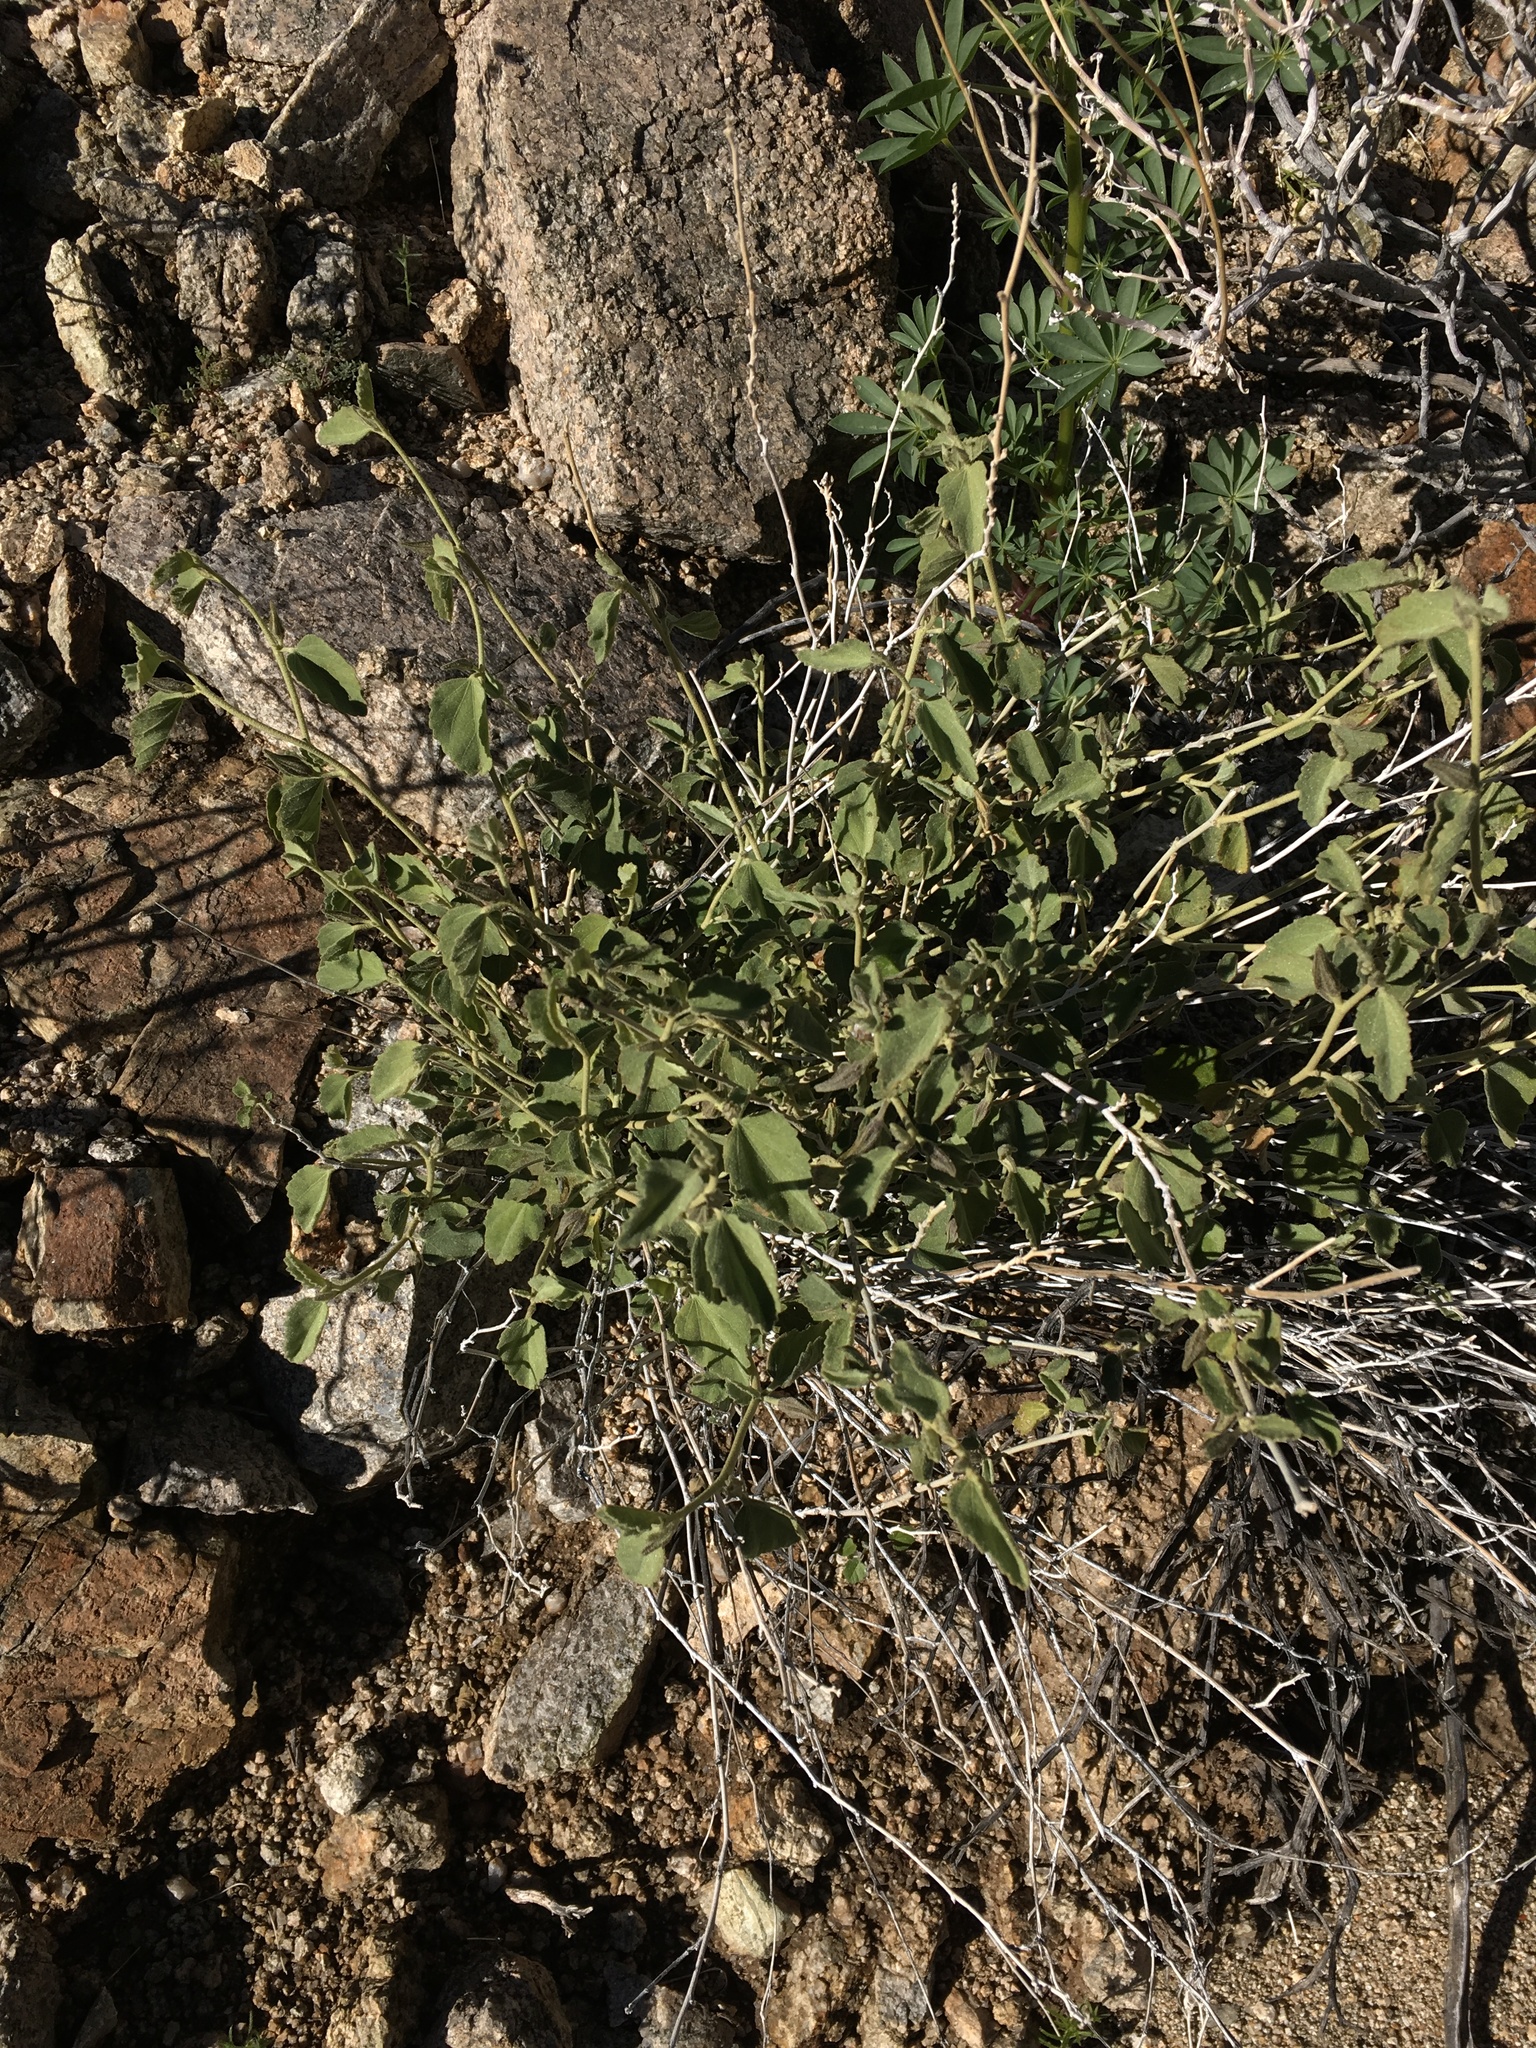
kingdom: Plantae
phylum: Tracheophyta
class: Magnoliopsida
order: Malvales
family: Malvaceae
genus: Hibiscus
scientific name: Hibiscus denudatus
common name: Paleface
